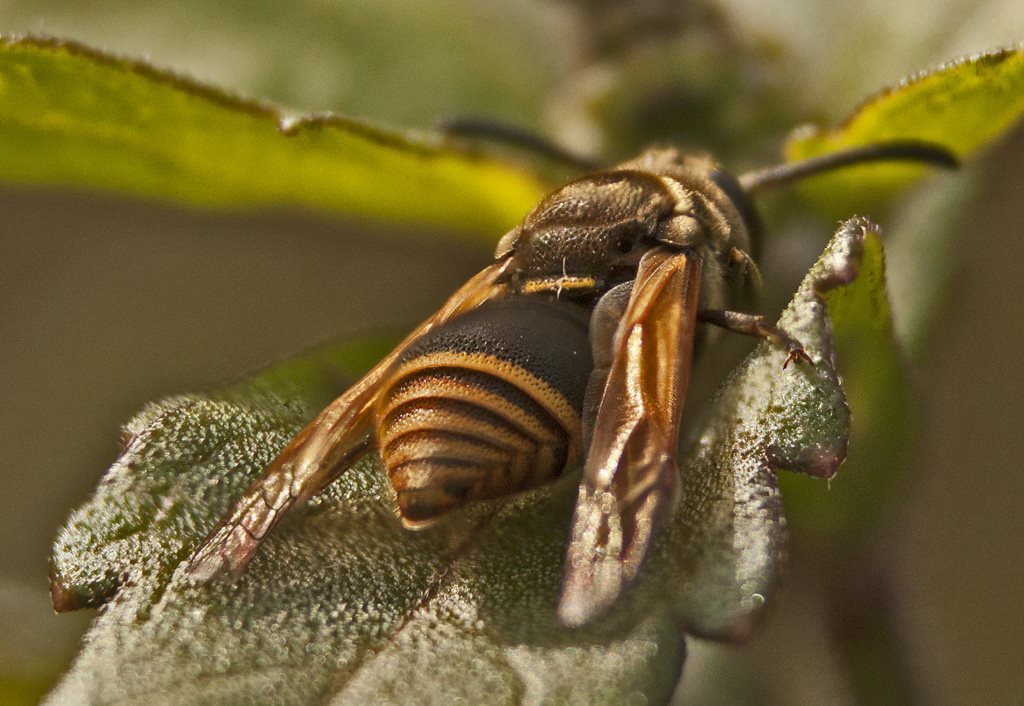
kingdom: Animalia
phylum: Arthropoda
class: Insecta
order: Hymenoptera
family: Eumenidae
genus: Pachodynerus
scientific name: Pachodynerus nasidens
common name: Key hole wasp
